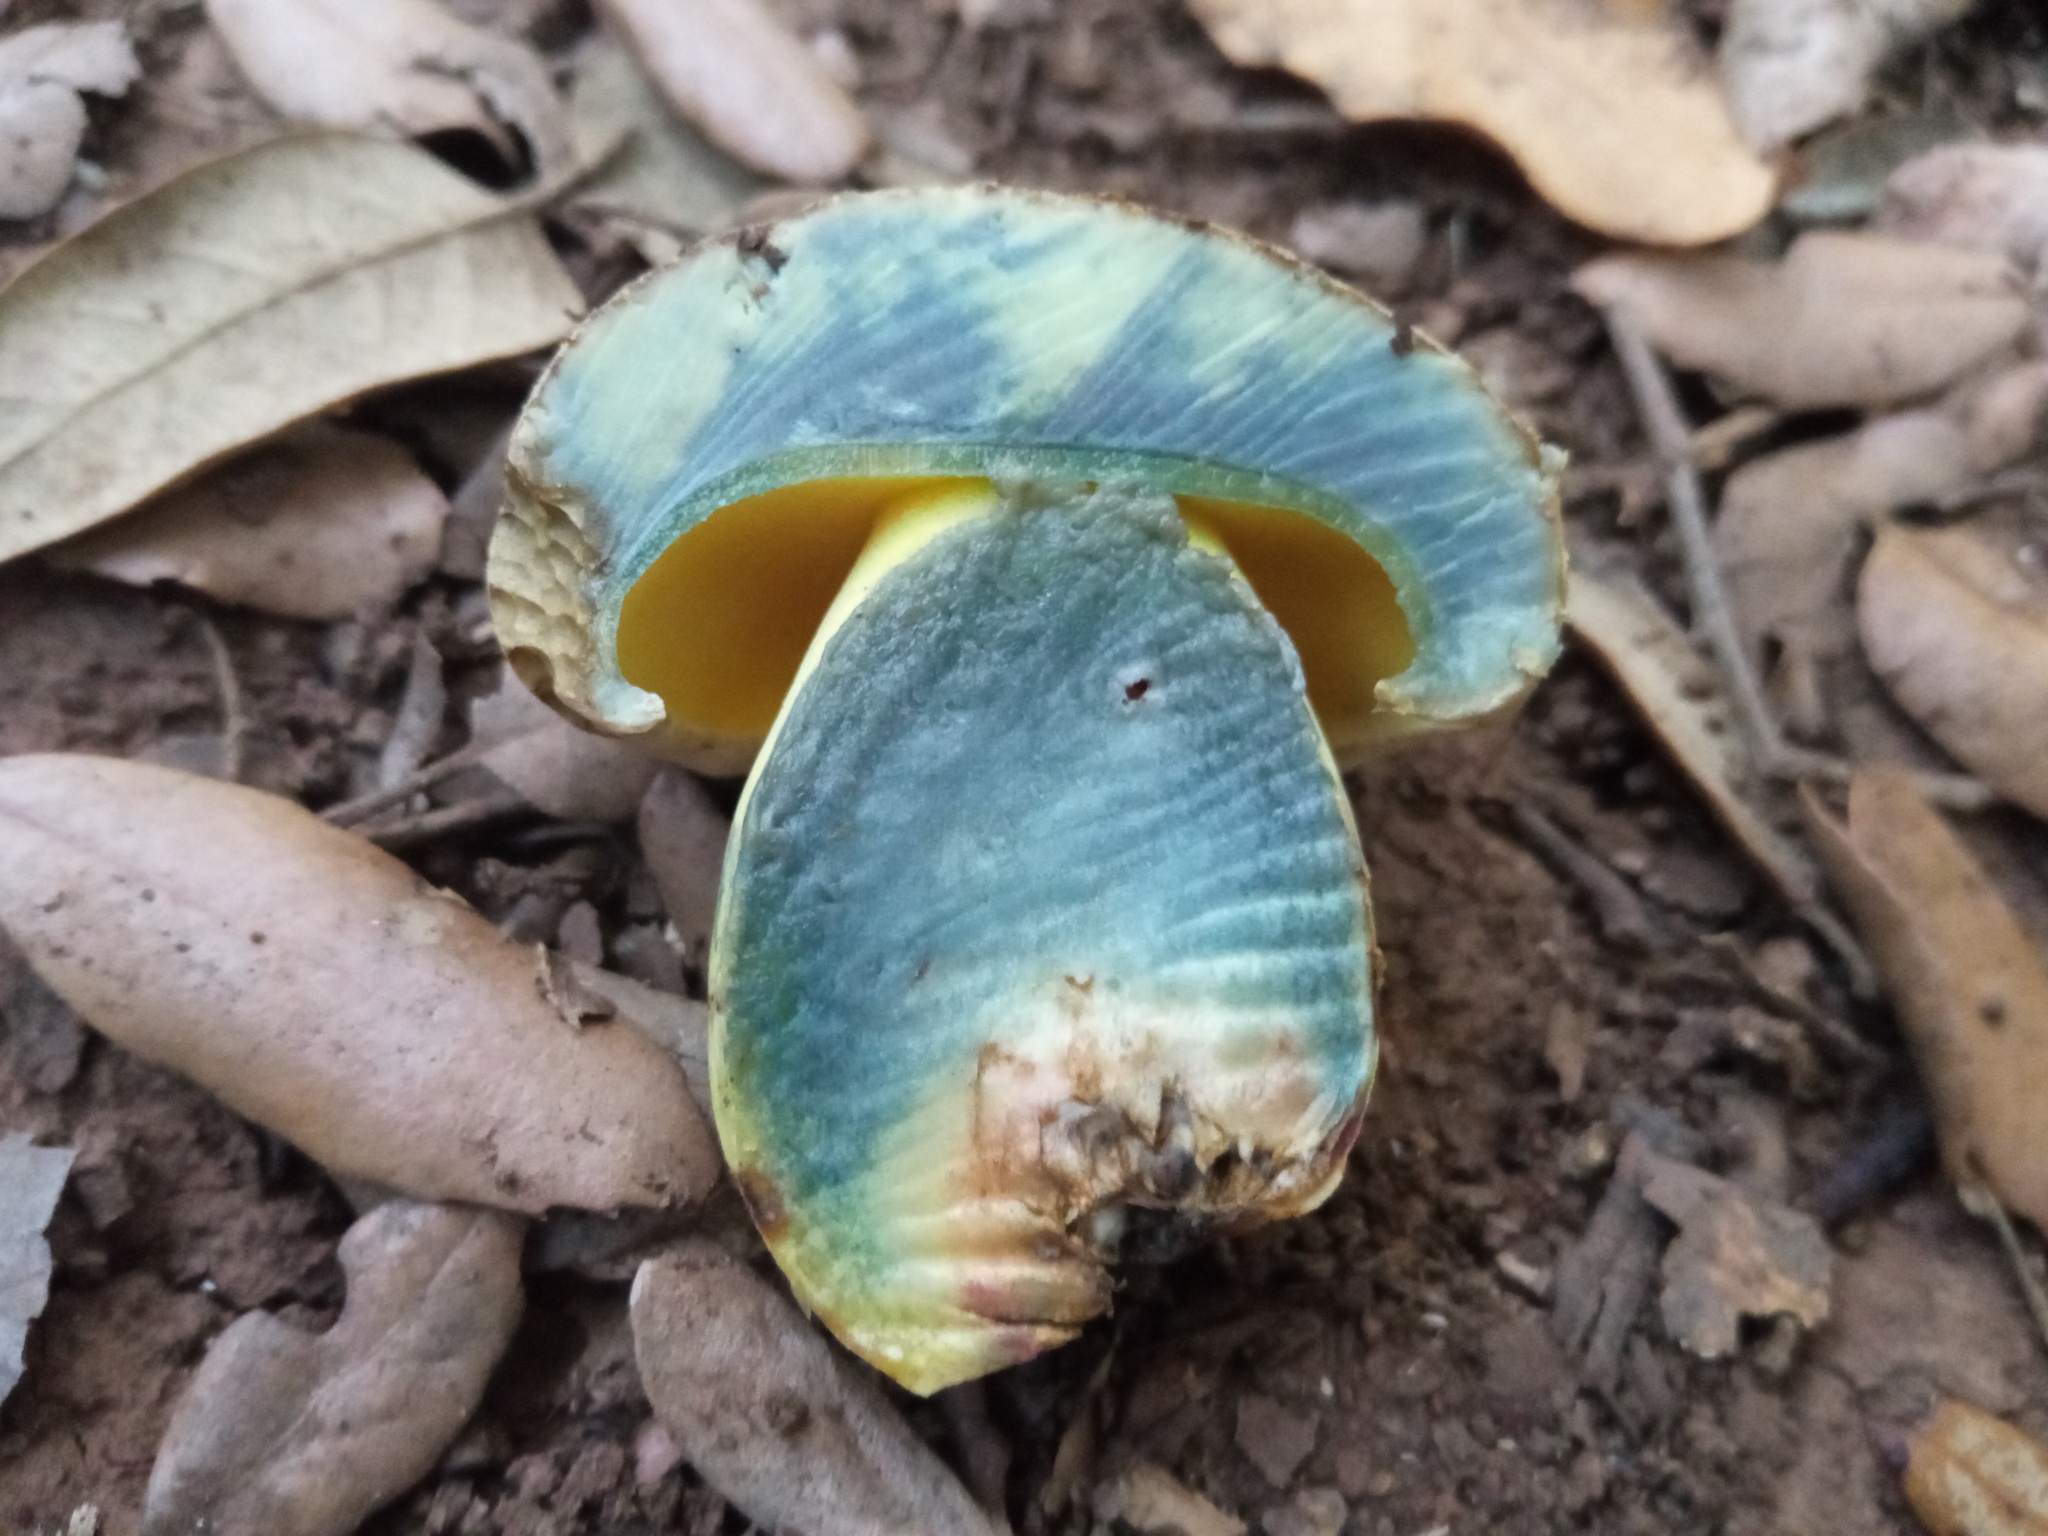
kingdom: Fungi
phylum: Basidiomycota
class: Agaricomycetes
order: Boletales
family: Boletaceae
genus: Caloboletus
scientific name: Caloboletus radicans
